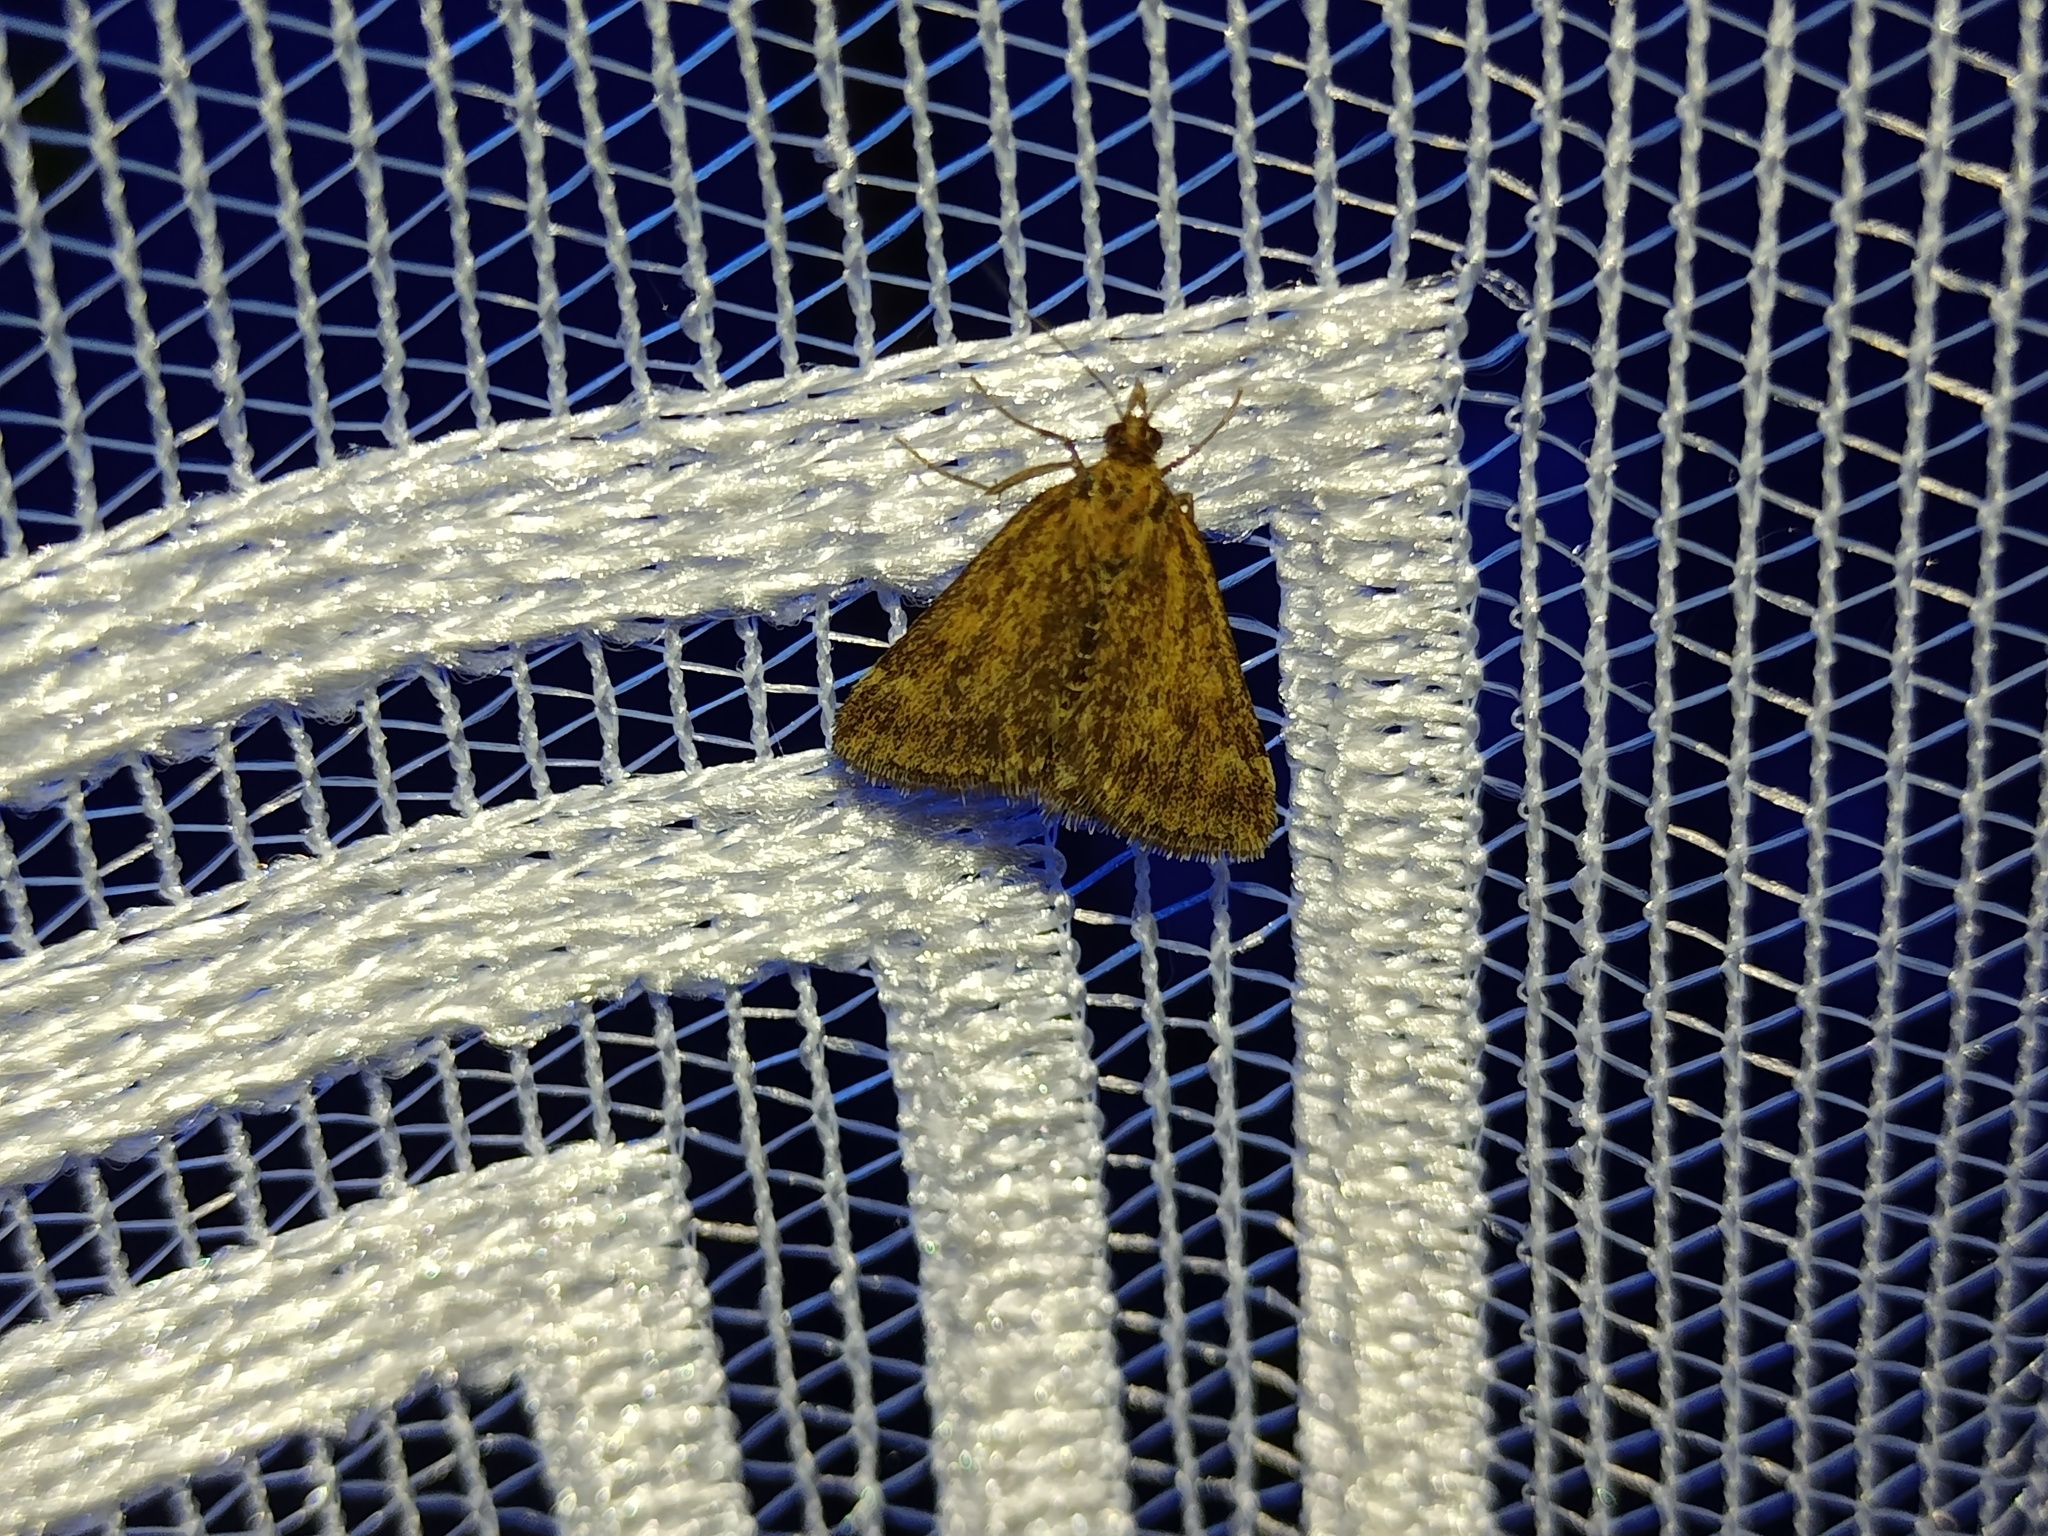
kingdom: Animalia
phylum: Arthropoda
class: Insecta
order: Lepidoptera
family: Crambidae
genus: Pyrausta
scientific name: Pyrausta despicata
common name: Straw-barred pearl
